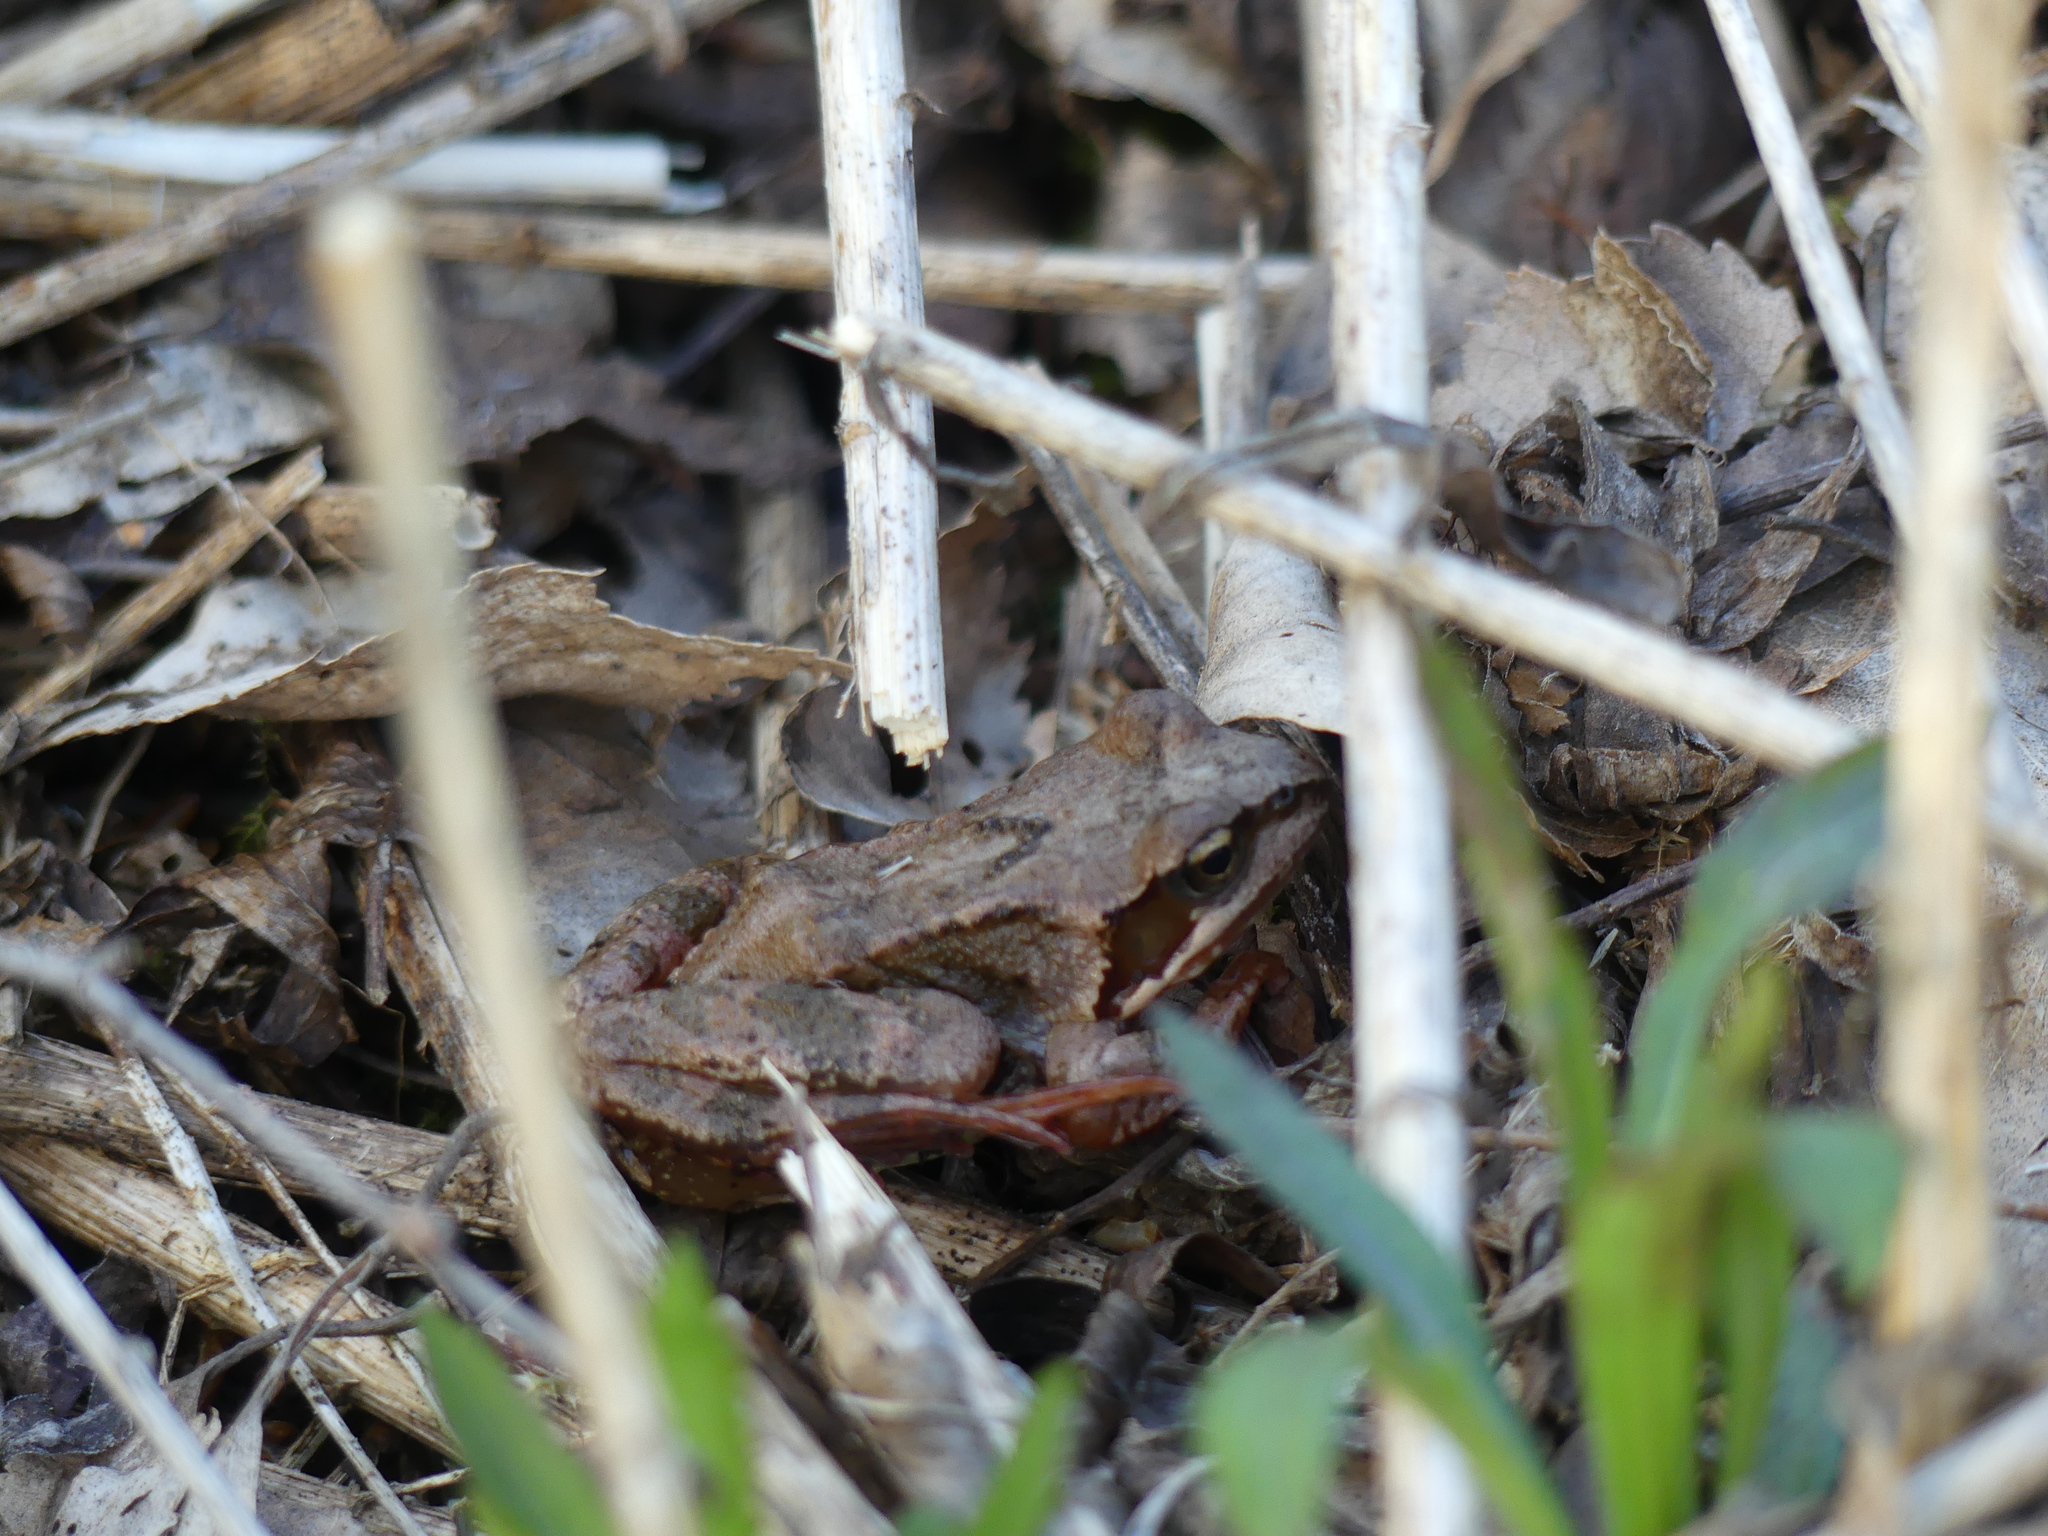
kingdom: Animalia
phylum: Chordata
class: Amphibia
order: Anura
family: Ranidae
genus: Rana
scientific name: Rana temporaria
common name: Common frog
